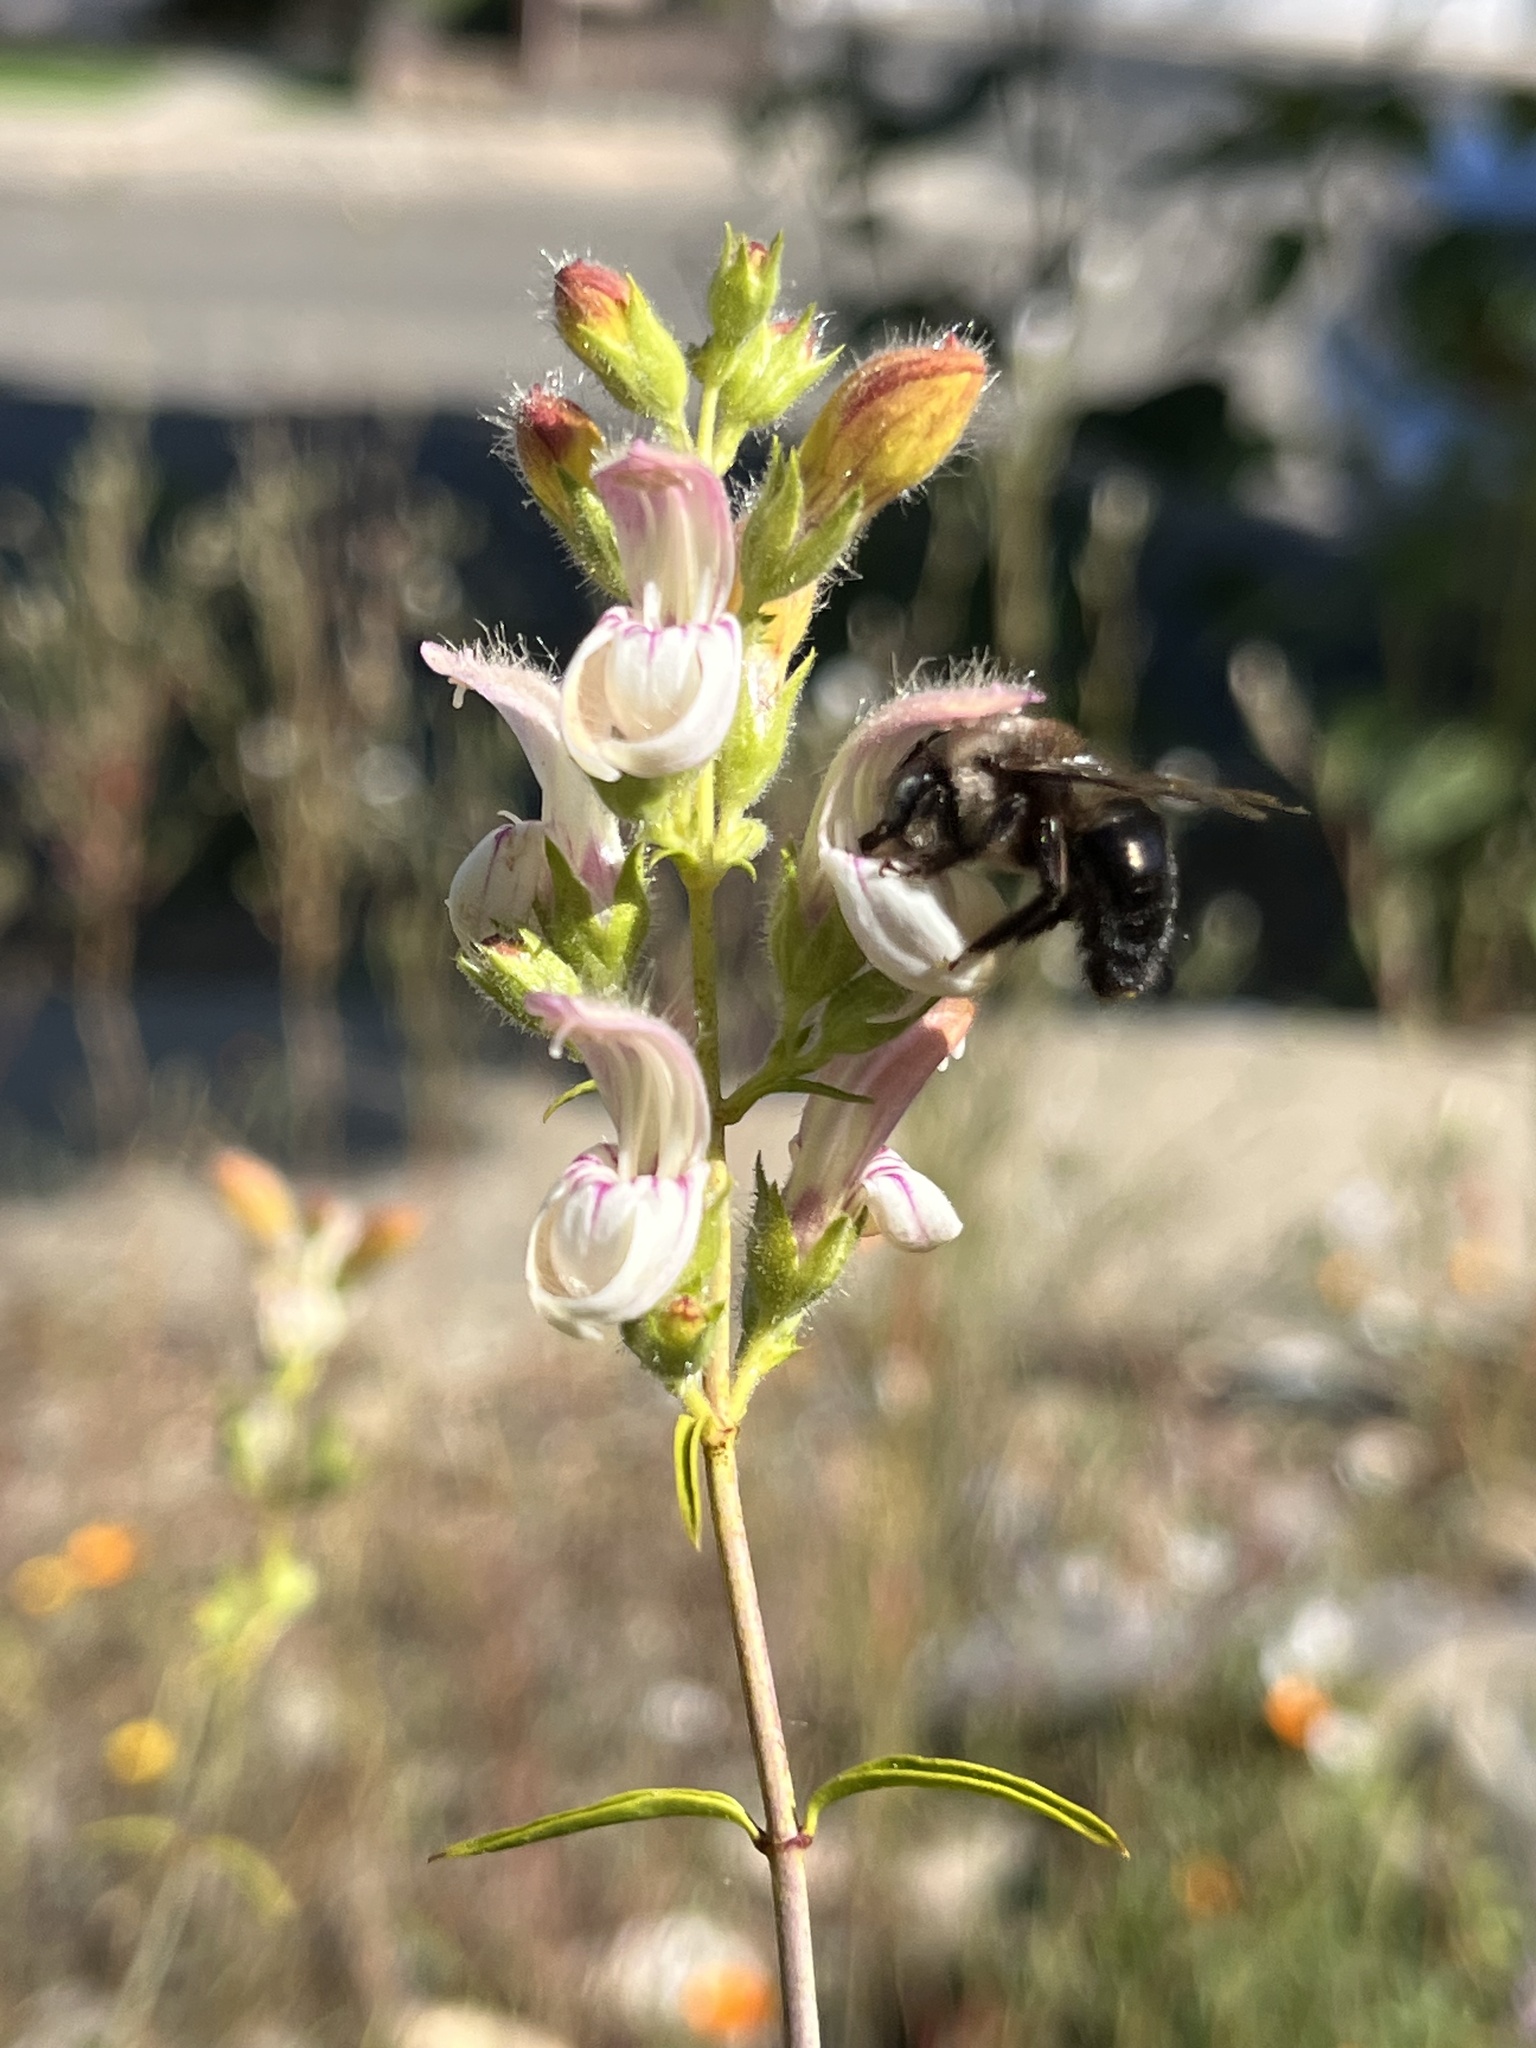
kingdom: Animalia
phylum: Arthropoda
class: Insecta
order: Hymenoptera
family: Apidae
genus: Xylocopa
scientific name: Xylocopa tabaniformis
